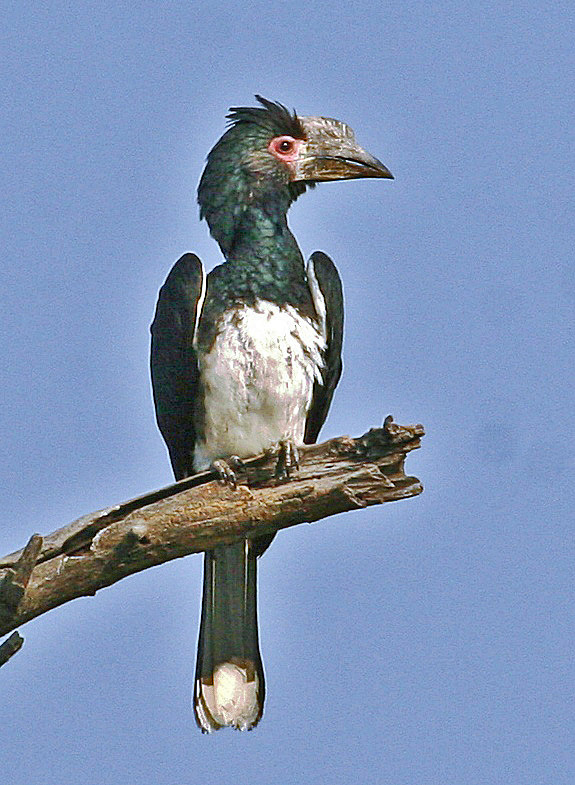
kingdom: Animalia
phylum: Chordata
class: Aves
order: Bucerotiformes
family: Bucerotidae
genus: Bycanistes
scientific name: Bycanistes bucinator
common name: Trumpeter hornbill
